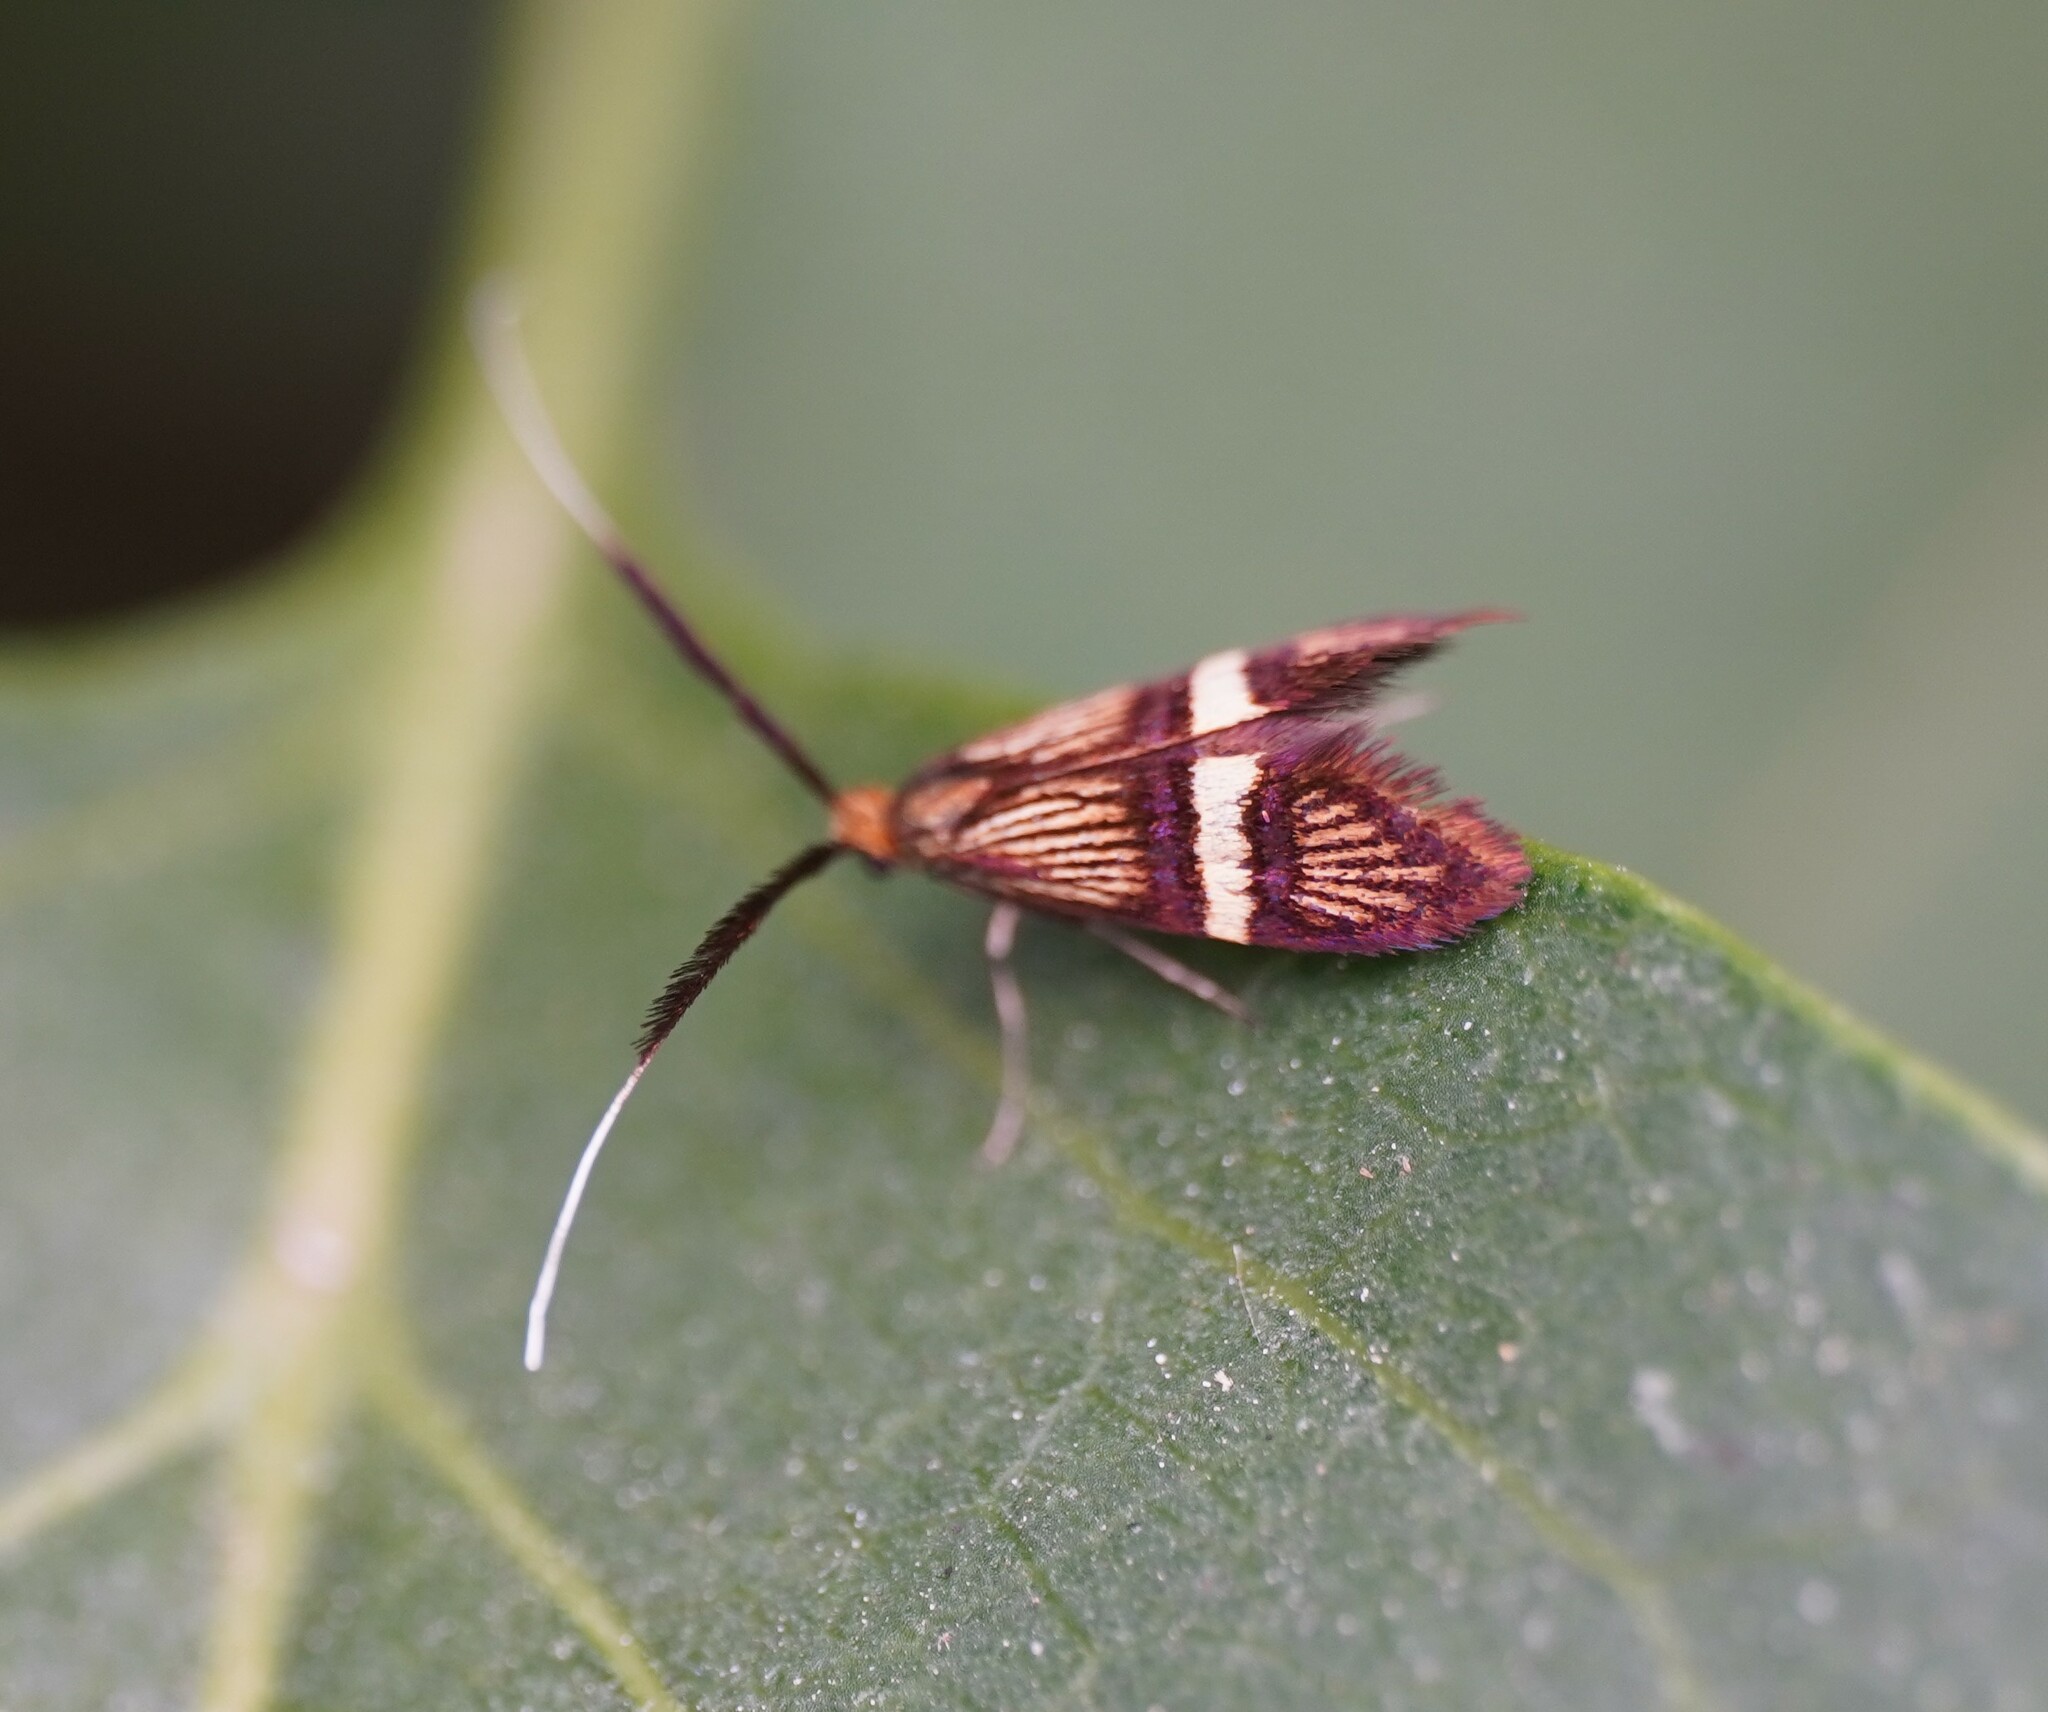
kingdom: Animalia
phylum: Arthropoda
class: Insecta
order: Lepidoptera
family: Adelidae
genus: Adela
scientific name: Adela croesella
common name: Small barred long-horn
